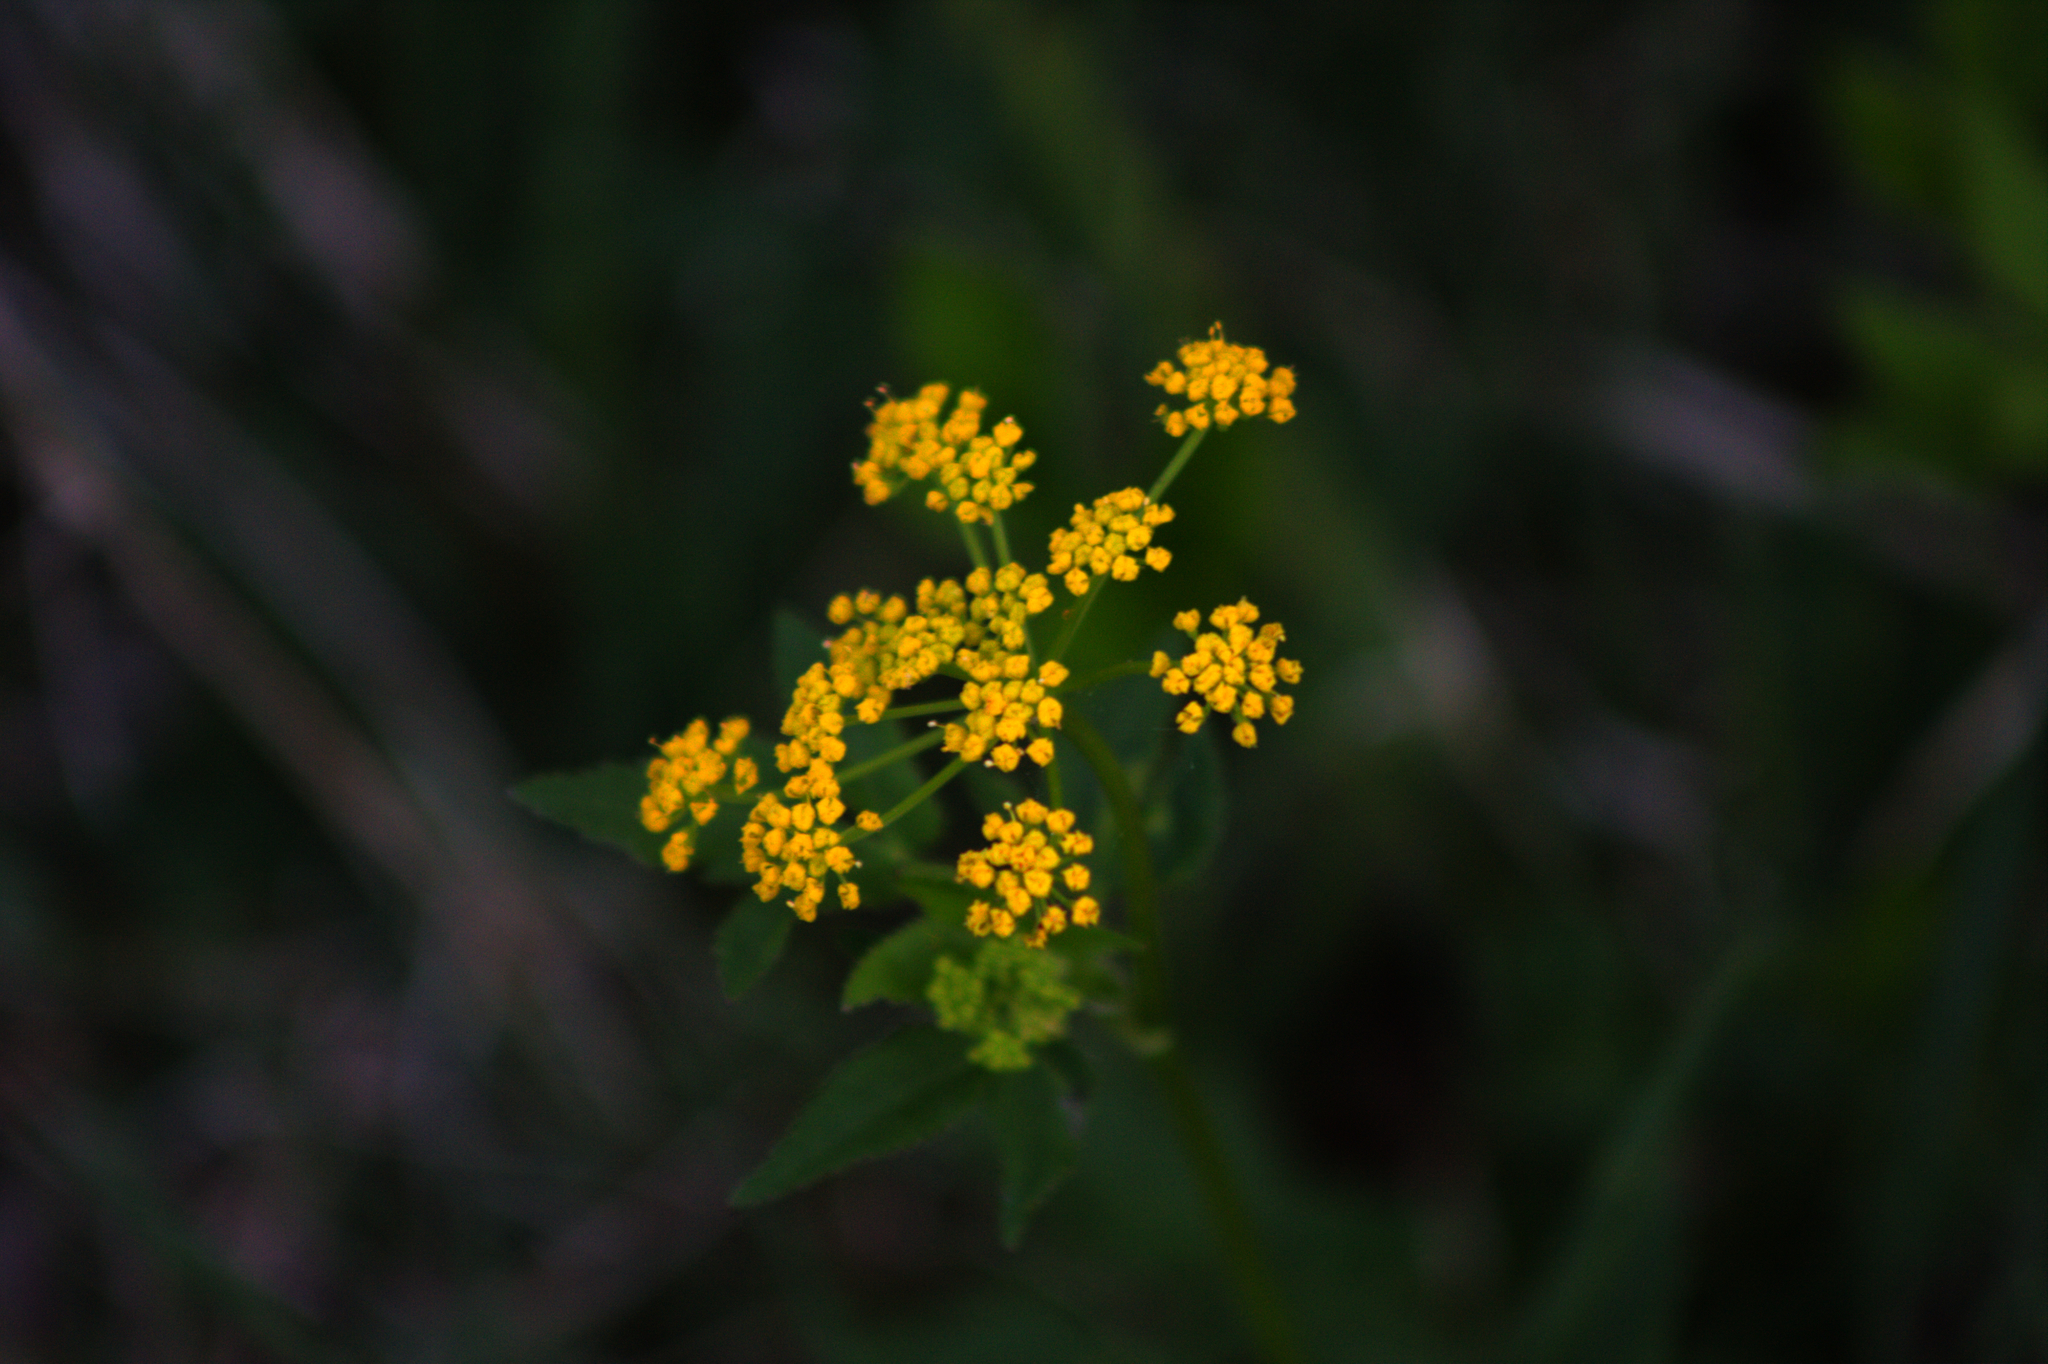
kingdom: Plantae
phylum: Tracheophyta
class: Magnoliopsida
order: Apiales
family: Apiaceae
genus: Zizia
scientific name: Zizia aurea
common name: Golden alexanders
